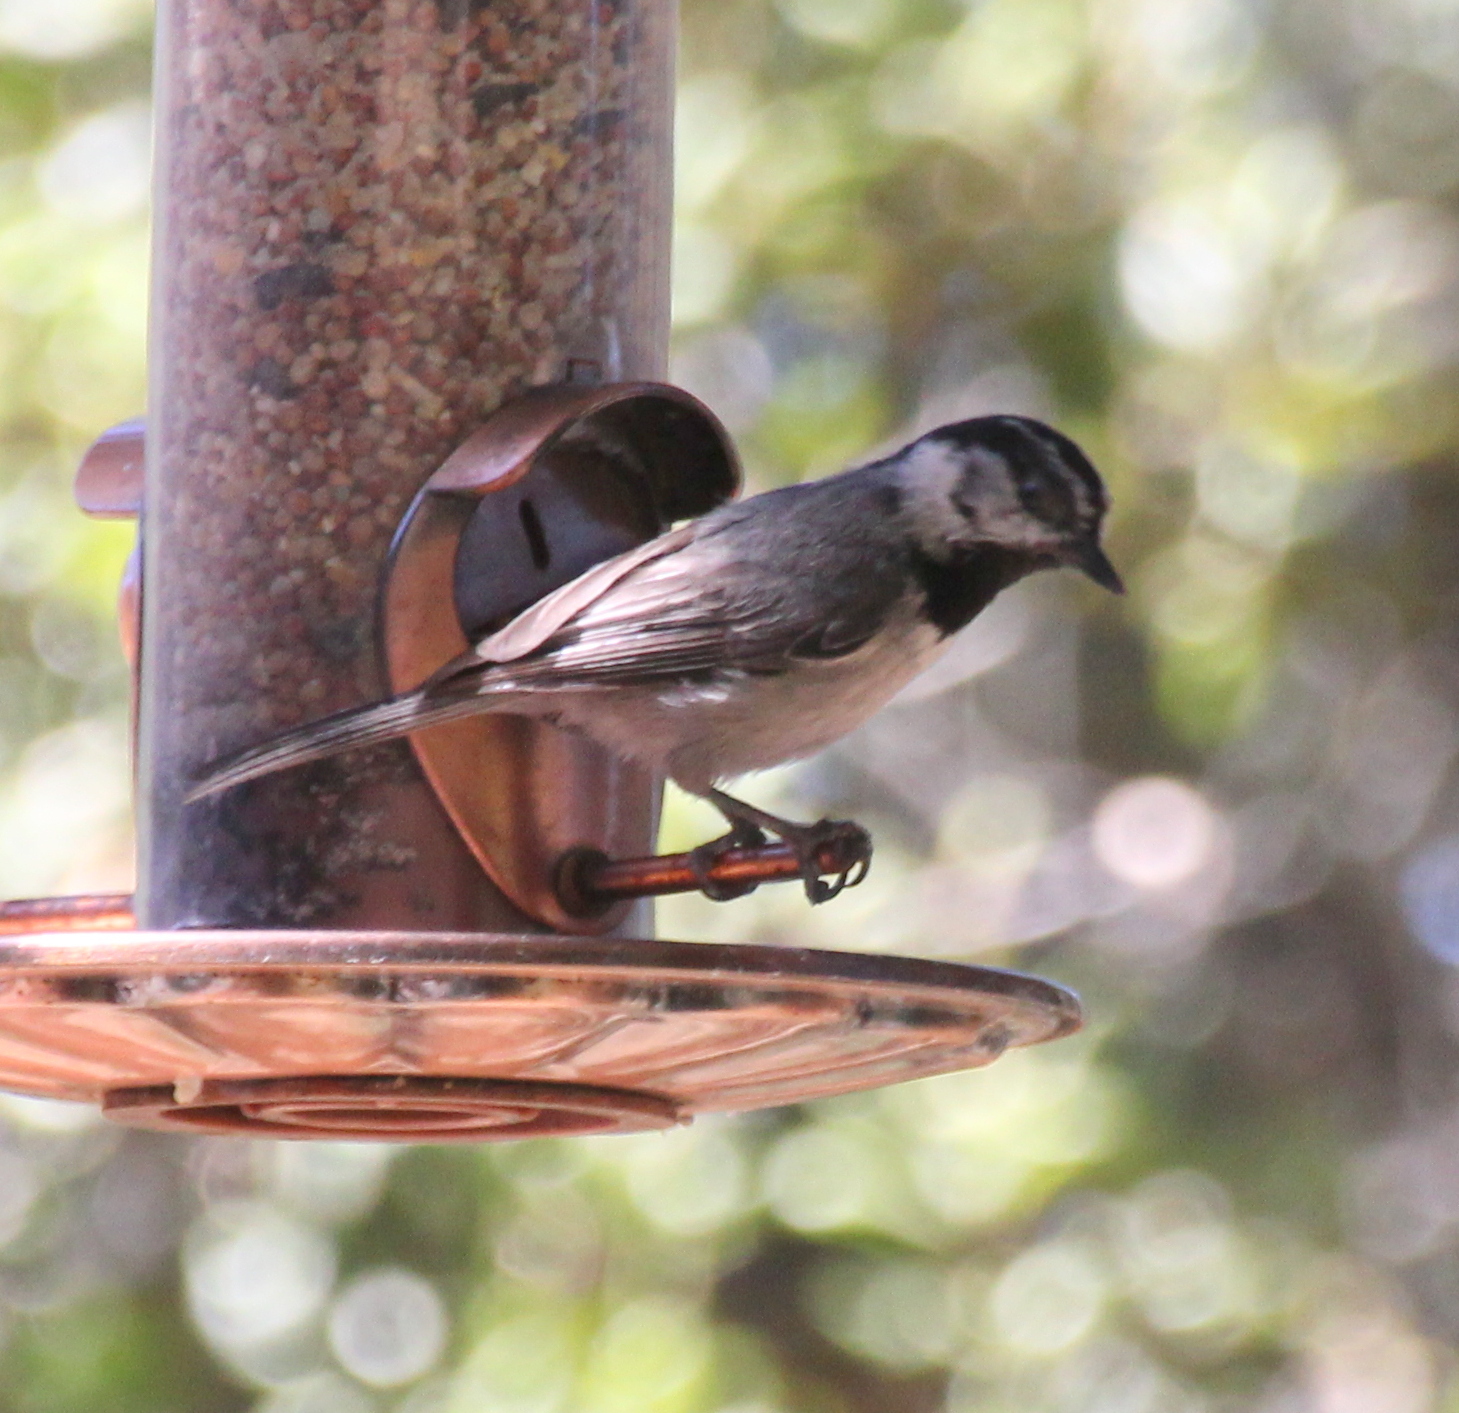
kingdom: Animalia
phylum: Chordata
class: Aves
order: Passeriformes
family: Paridae
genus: Poecile
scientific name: Poecile gambeli
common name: Mountain chickadee
